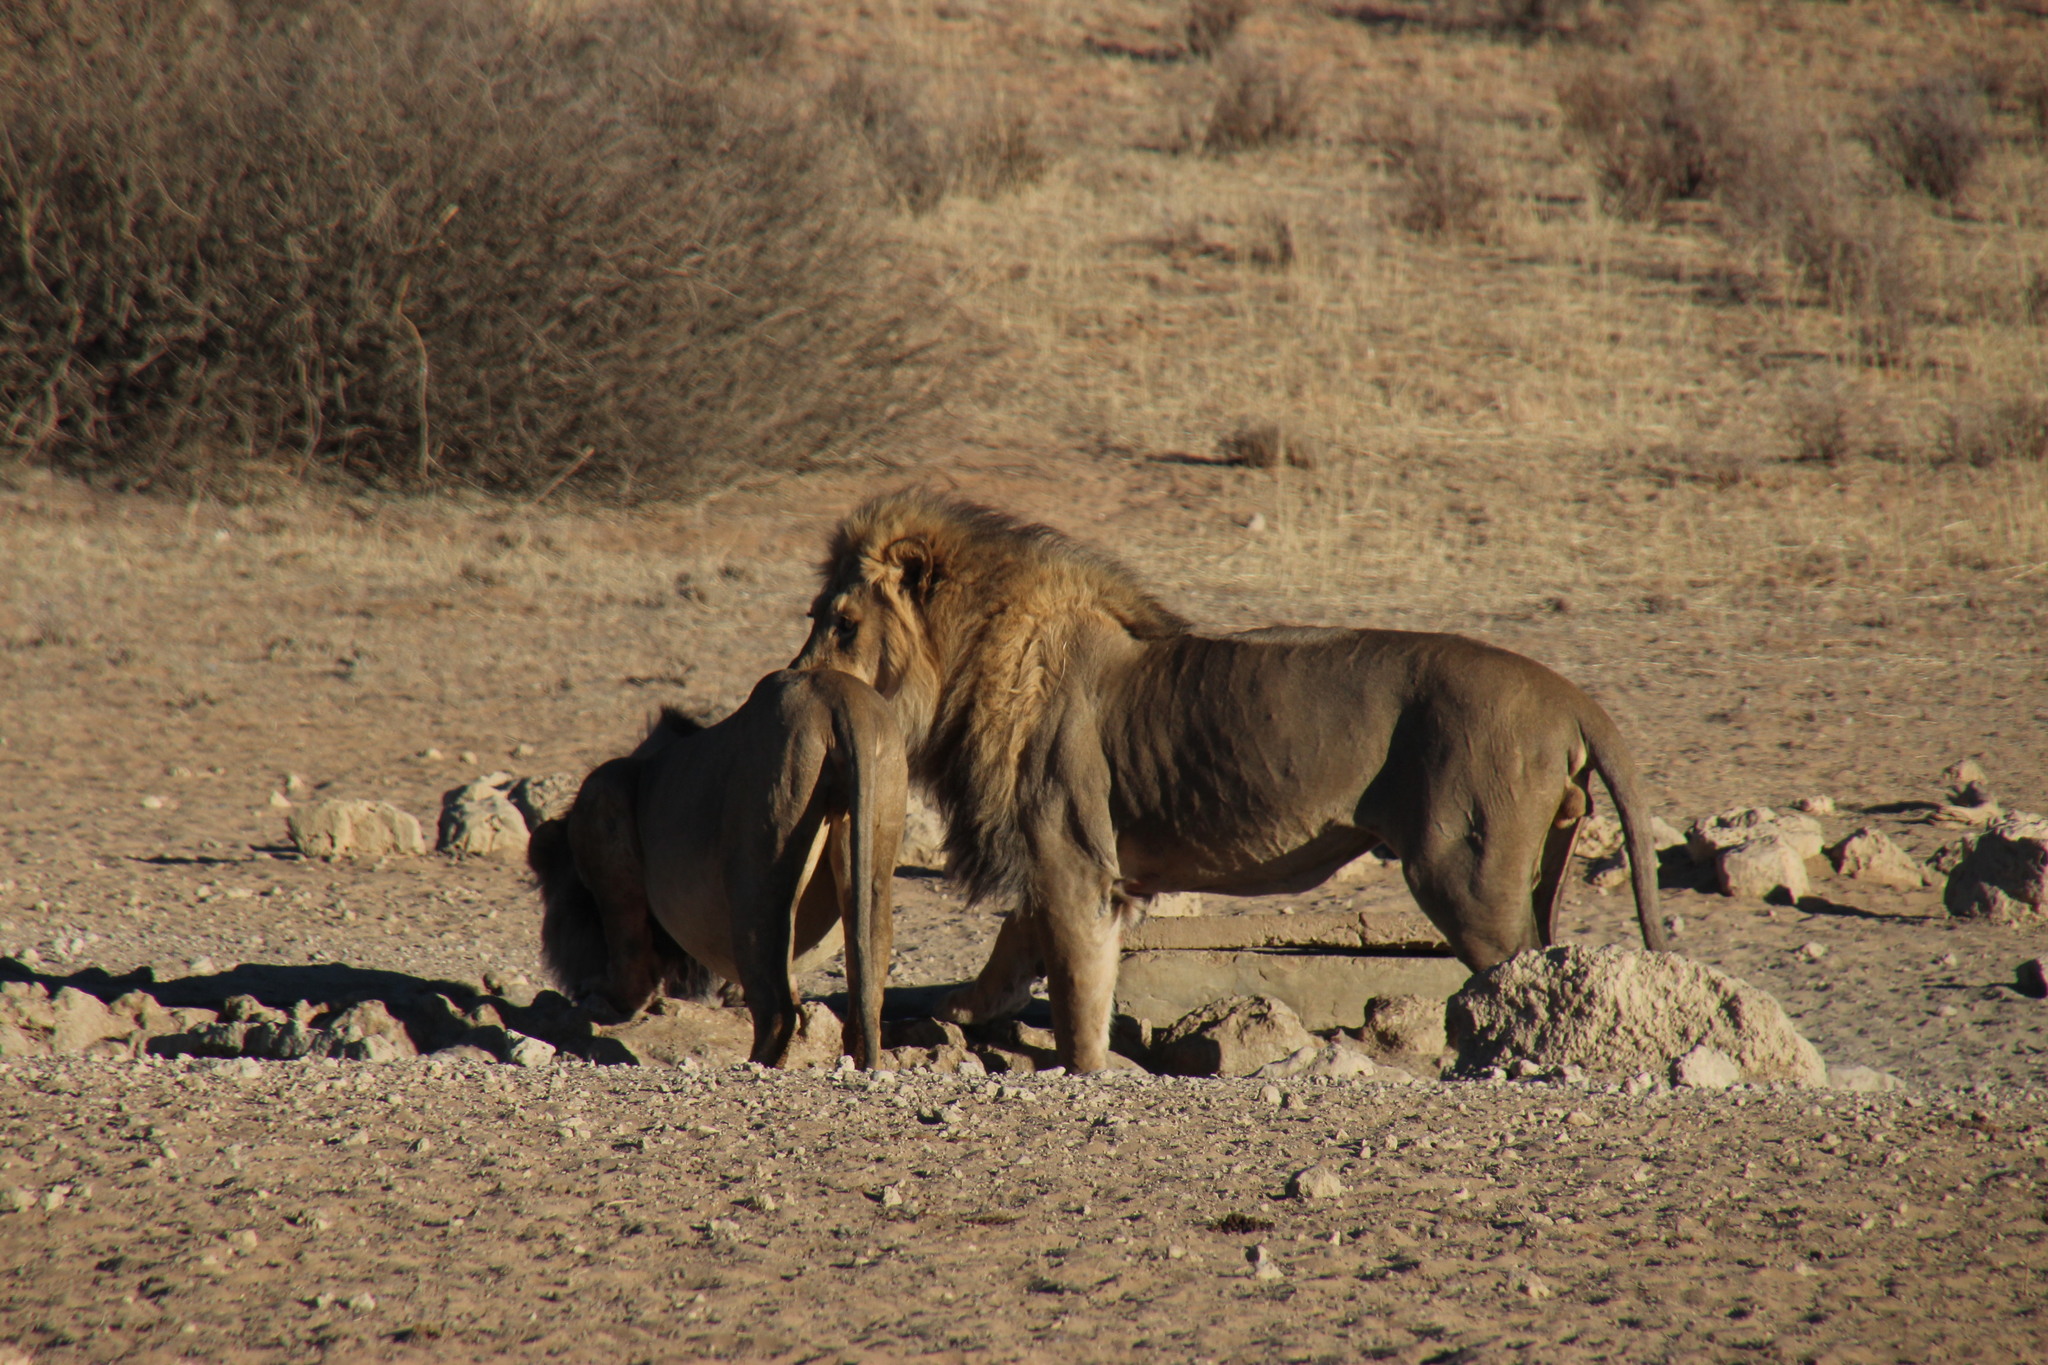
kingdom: Animalia
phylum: Chordata
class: Mammalia
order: Carnivora
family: Felidae
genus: Panthera
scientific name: Panthera leo
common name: Lion
